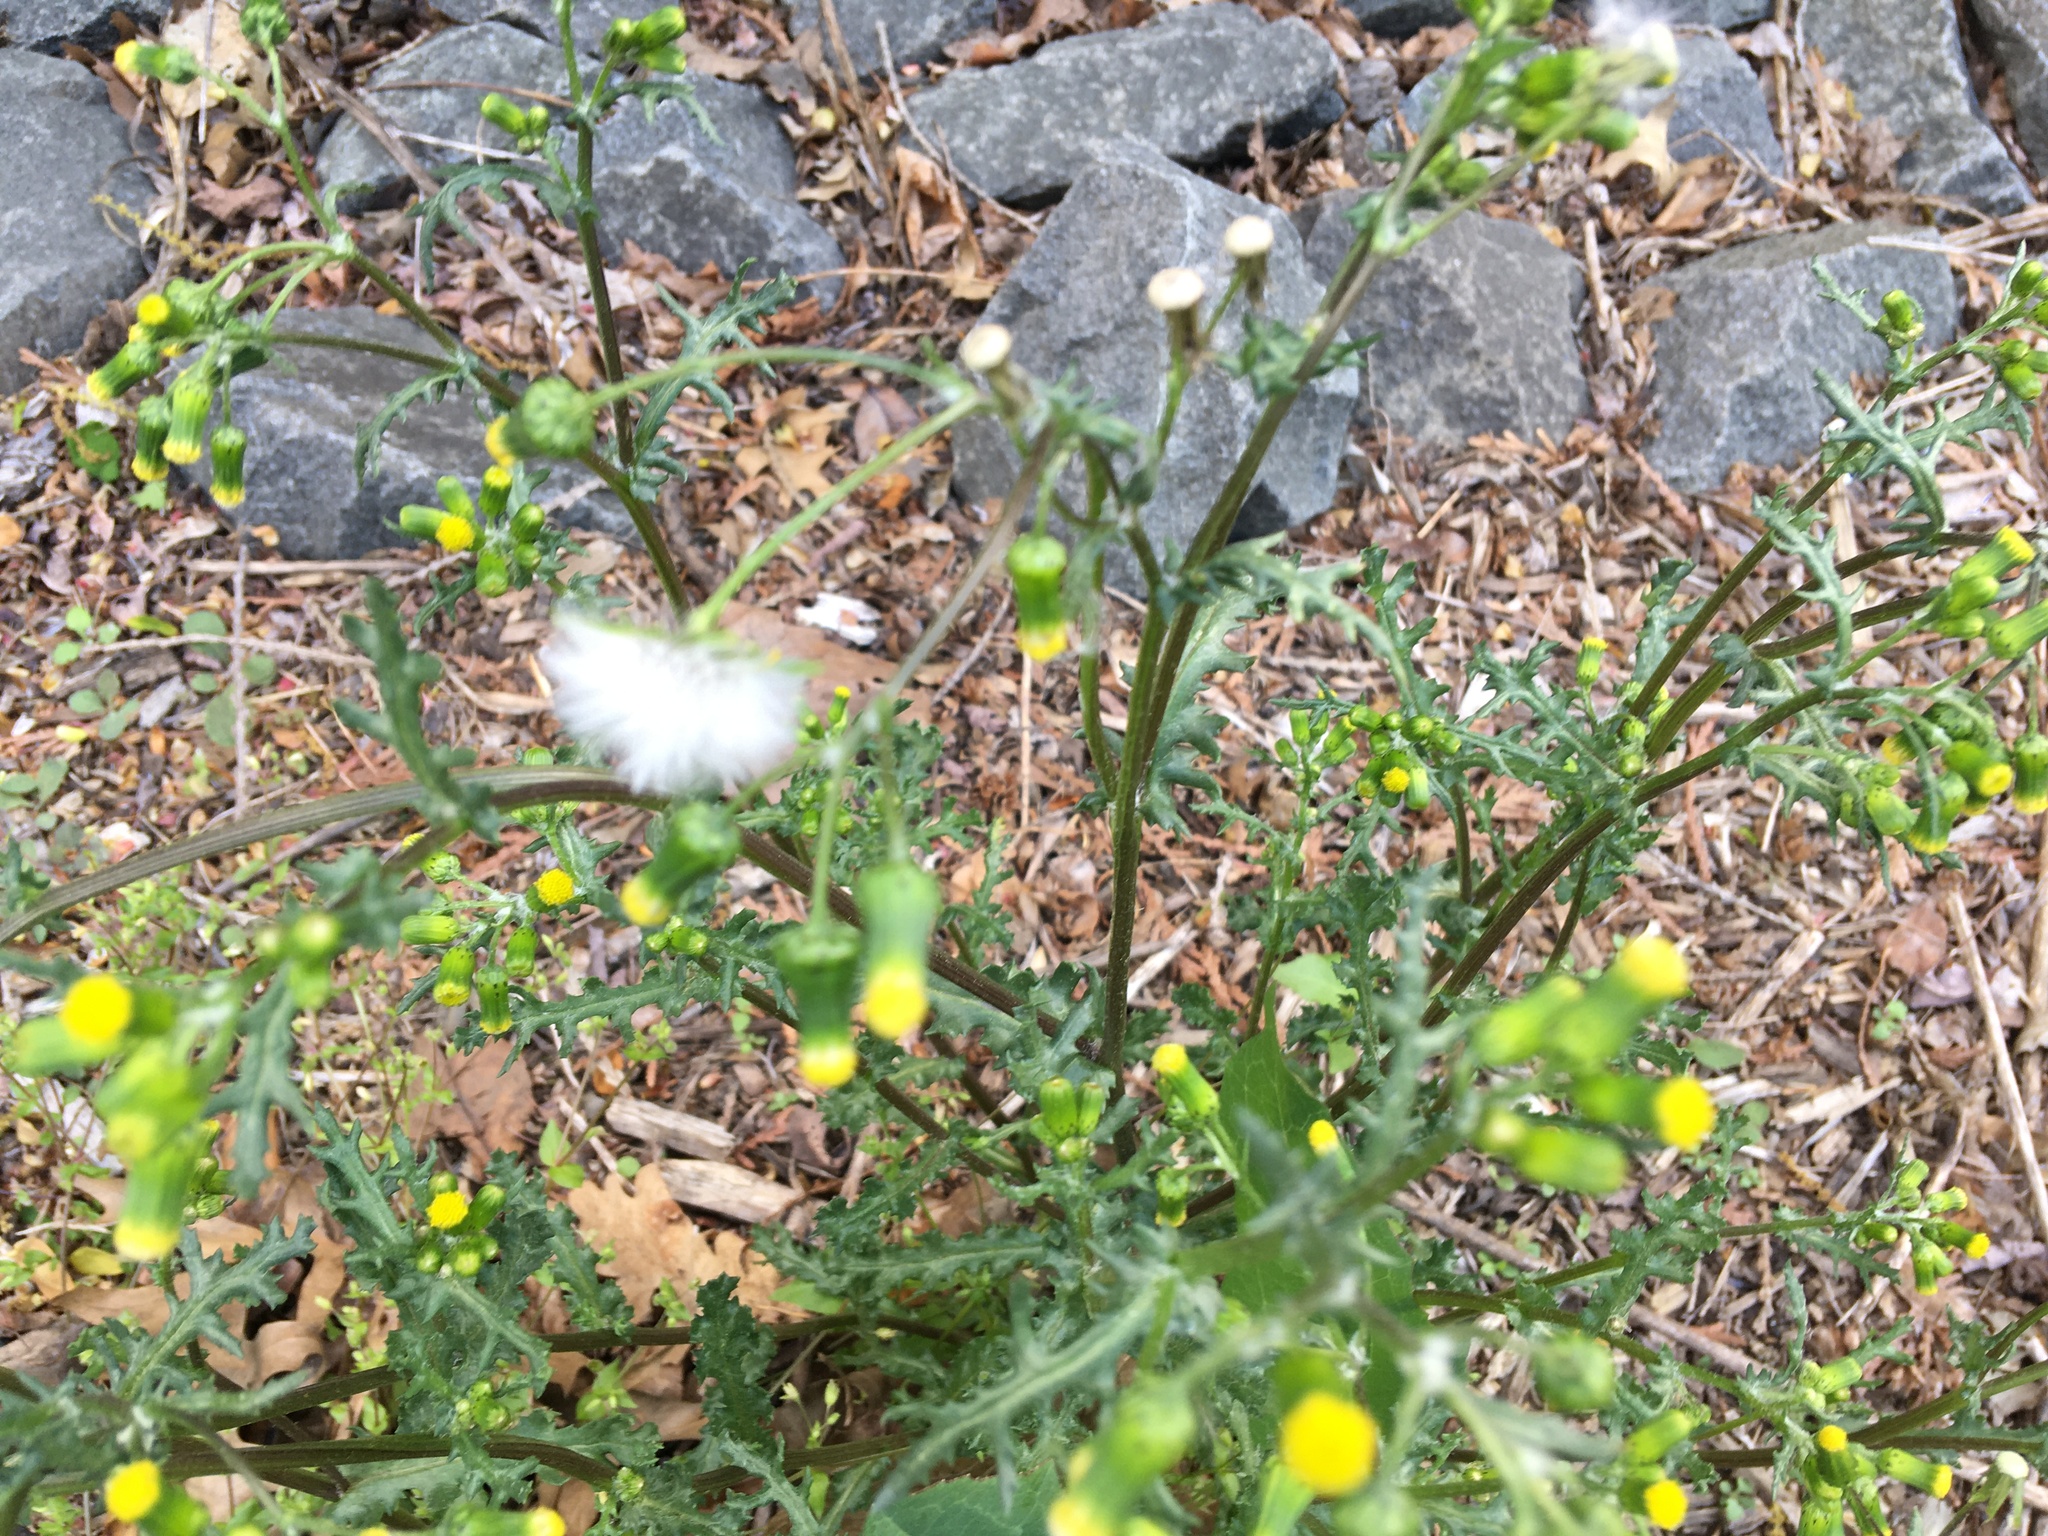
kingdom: Plantae
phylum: Tracheophyta
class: Magnoliopsida
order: Asterales
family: Asteraceae
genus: Senecio
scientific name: Senecio vulgaris
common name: Old-man-in-the-spring
